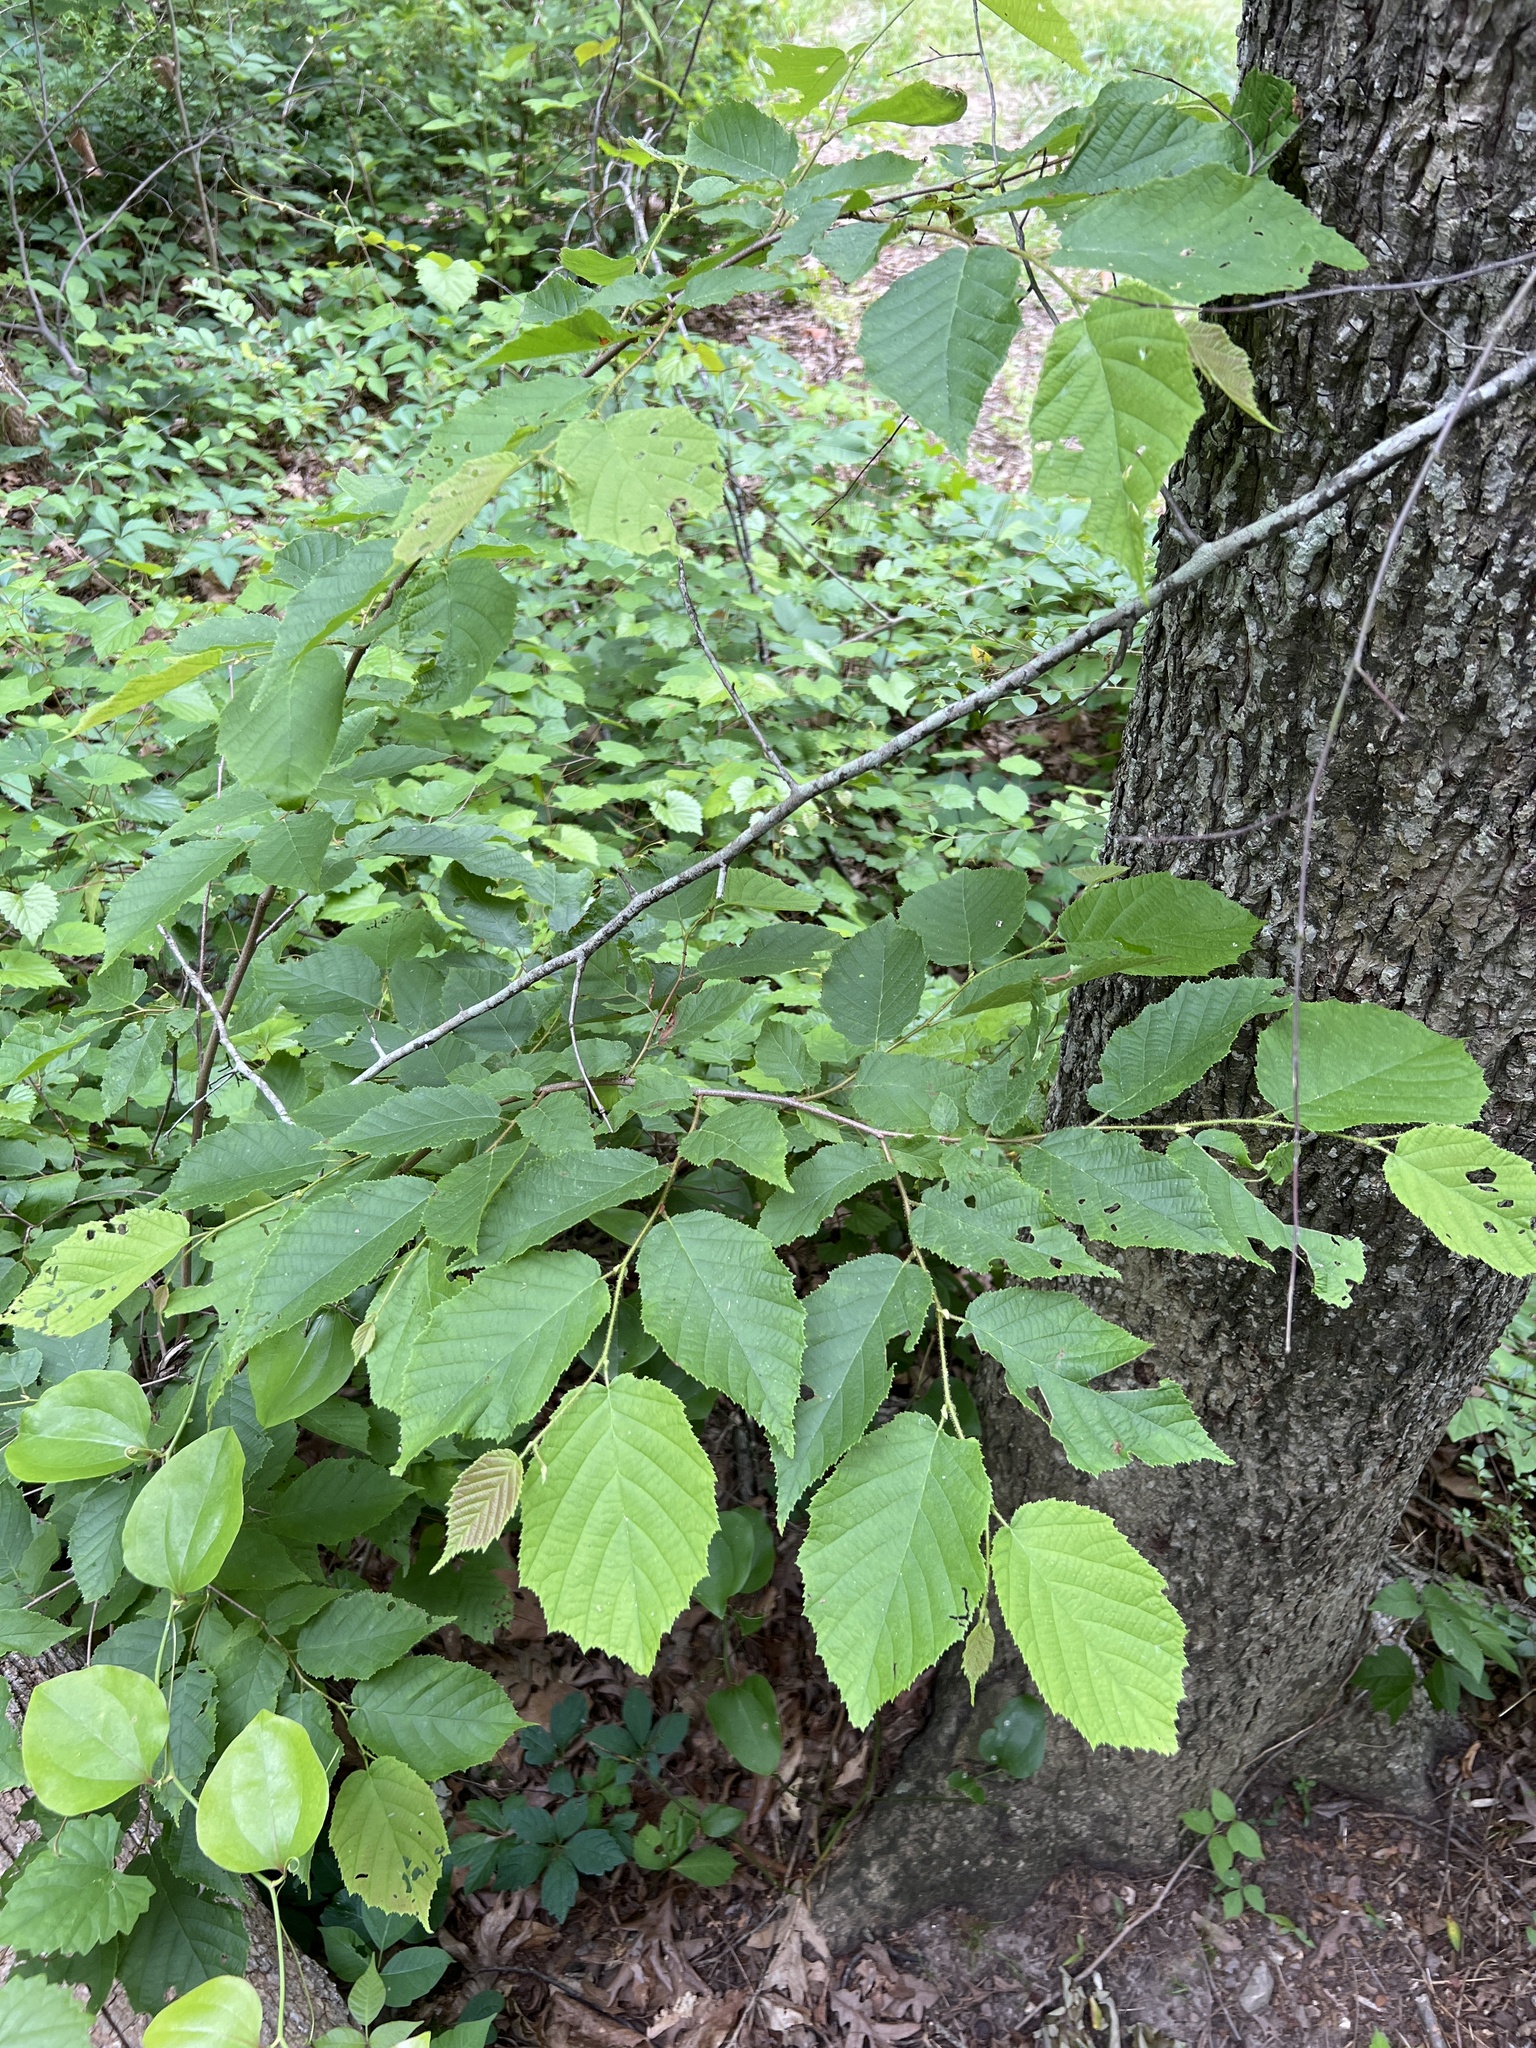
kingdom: Plantae
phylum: Tracheophyta
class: Magnoliopsida
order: Fagales
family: Betulaceae
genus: Corylus
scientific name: Corylus americana
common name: American hazel
